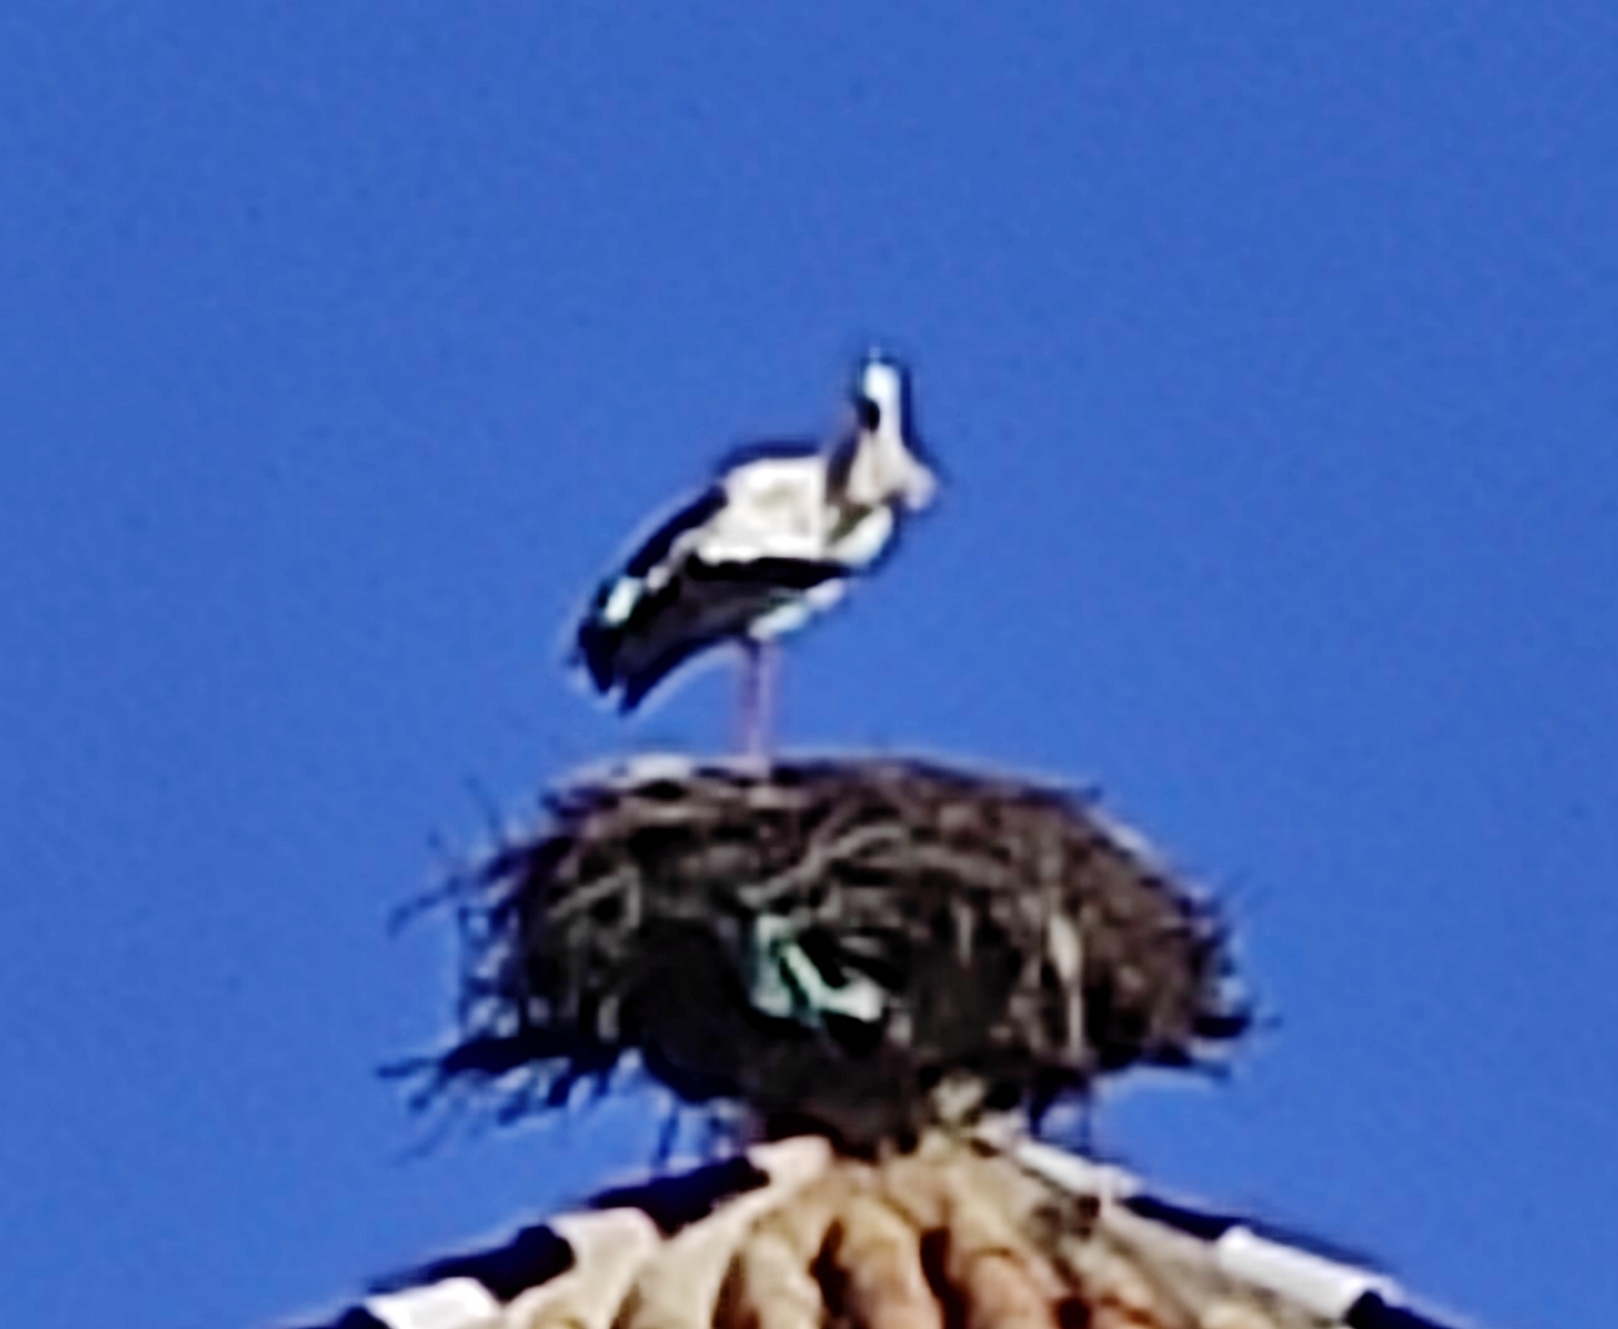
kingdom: Animalia
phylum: Chordata
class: Aves
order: Ciconiiformes
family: Ciconiidae
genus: Ciconia
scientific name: Ciconia ciconia
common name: White stork
